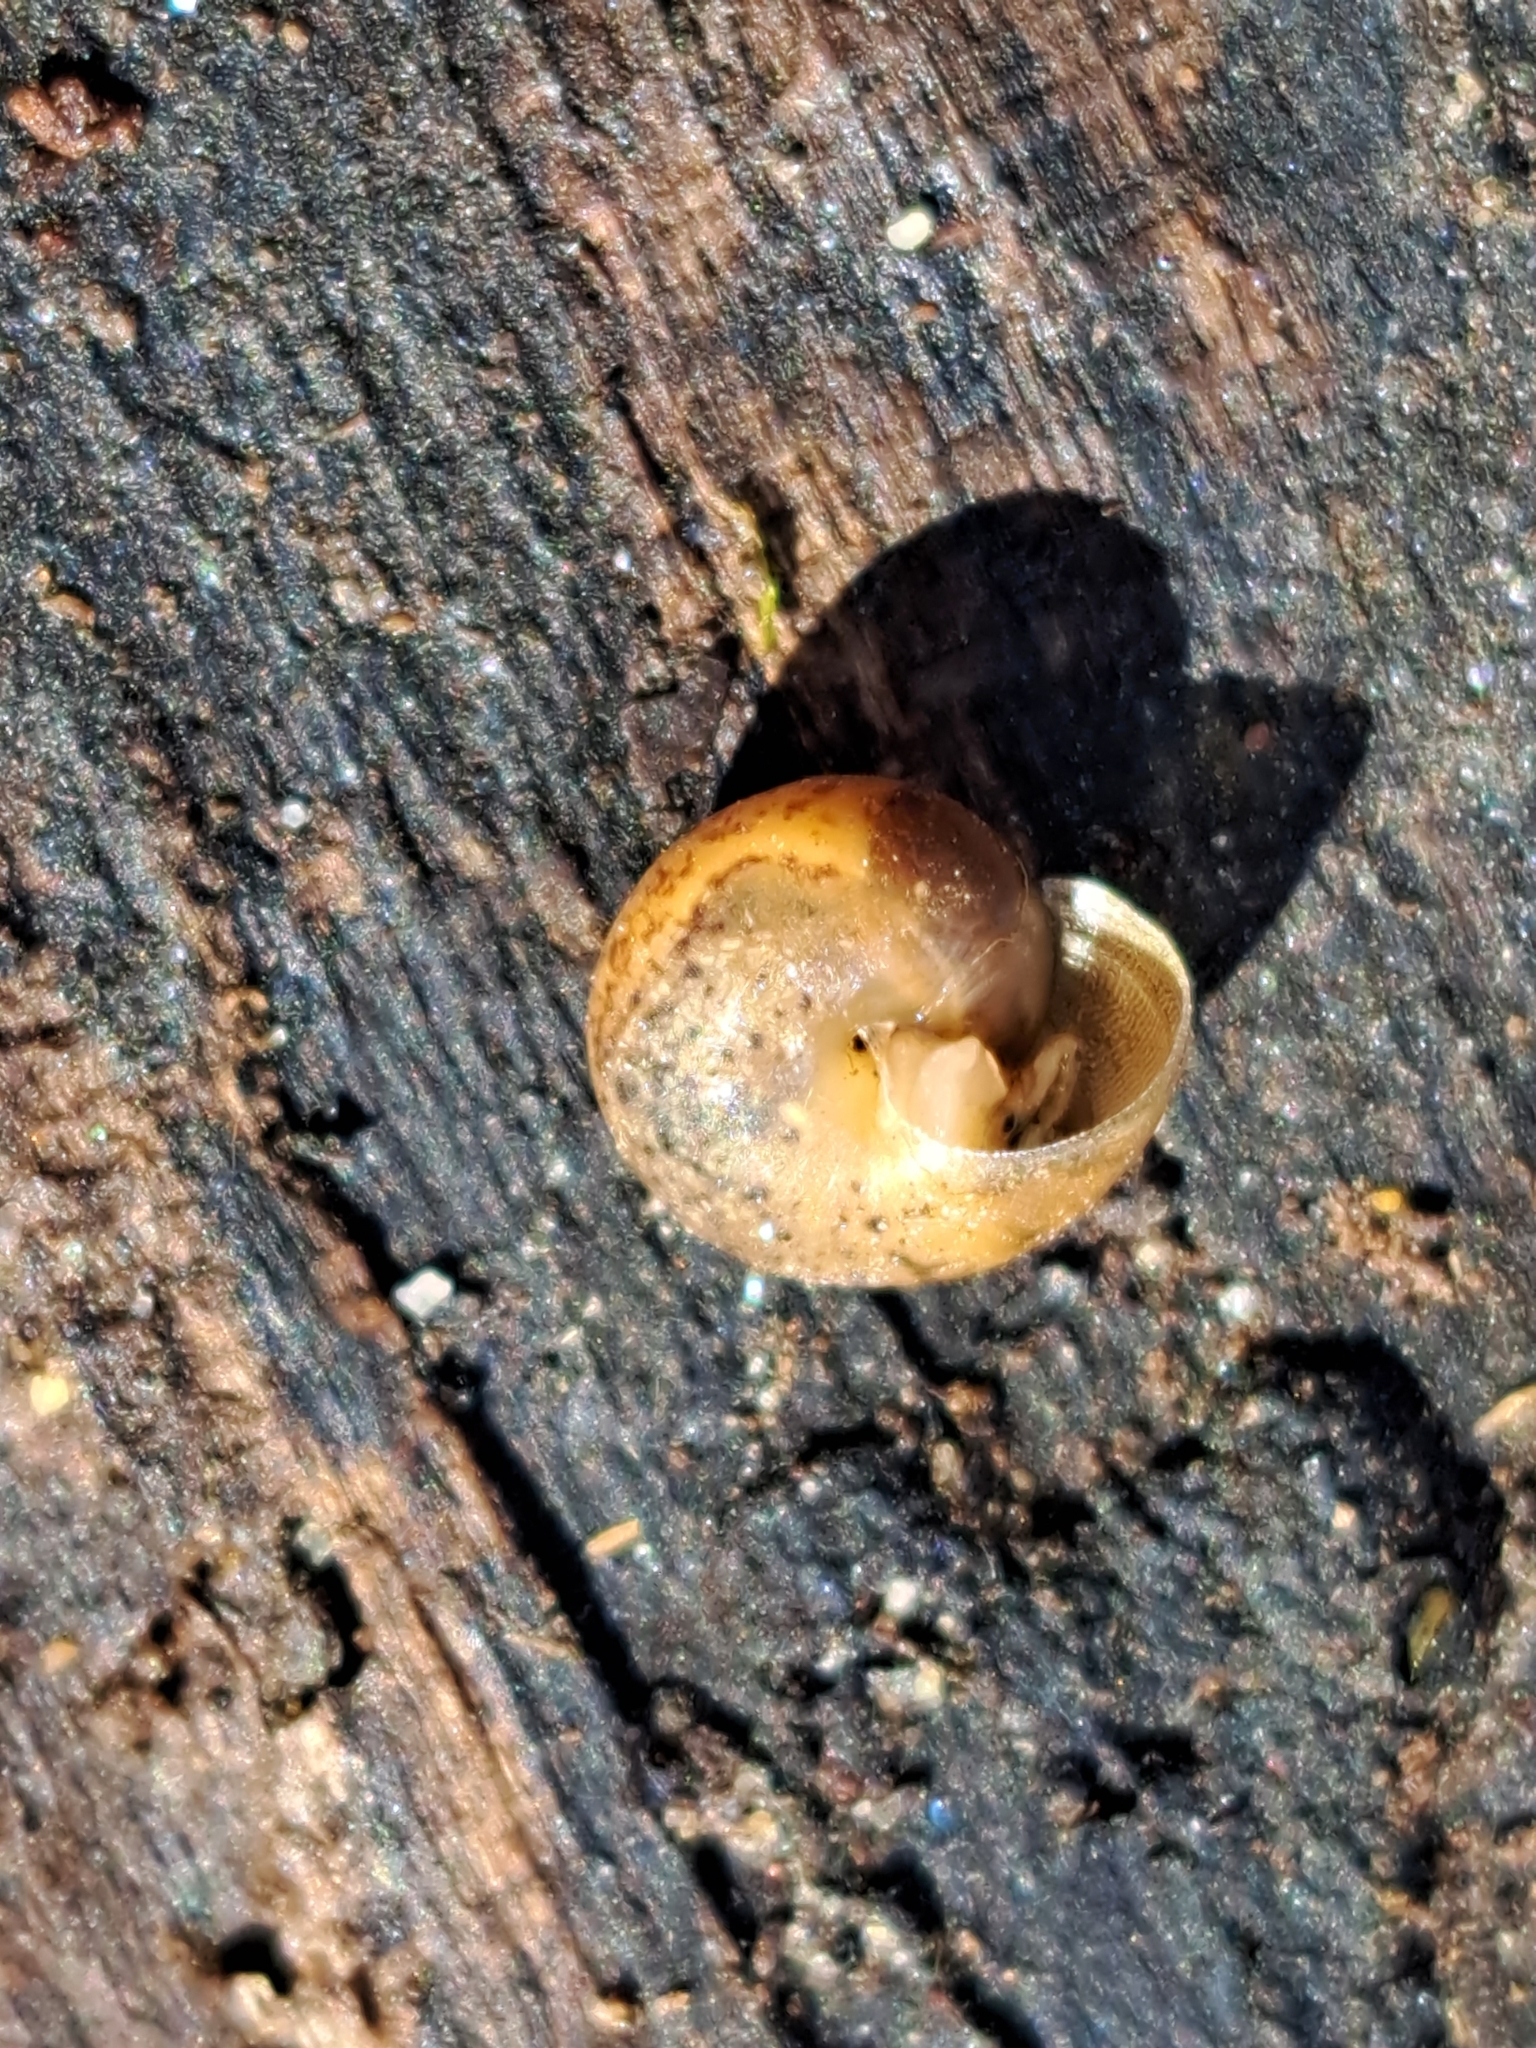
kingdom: Animalia
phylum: Mollusca
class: Gastropoda
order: Stylommatophora
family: Hygromiidae
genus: Monachoides
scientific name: Monachoides incarnatus
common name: Incarnate snail
